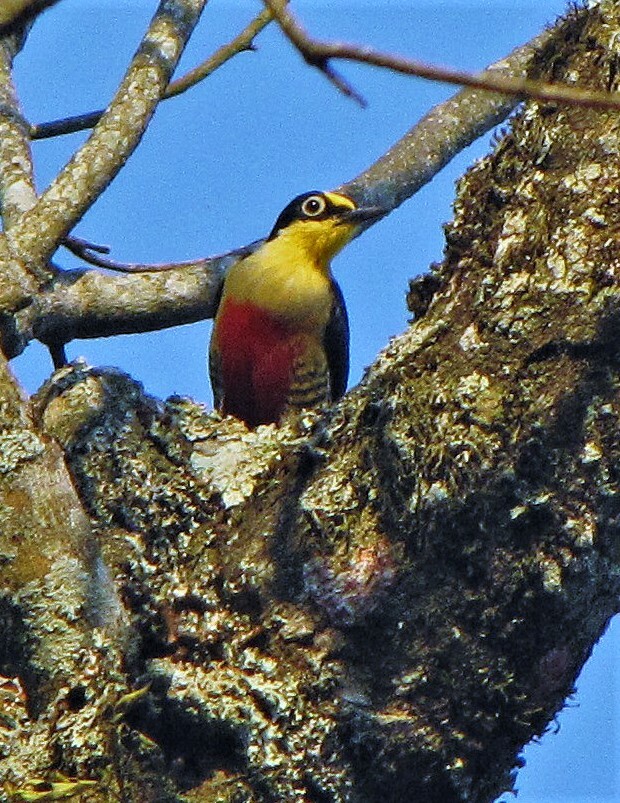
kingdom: Animalia
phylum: Chordata
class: Aves
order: Piciformes
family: Picidae
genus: Melanerpes
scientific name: Melanerpes flavifrons
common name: Yellow-fronted woodpecker
